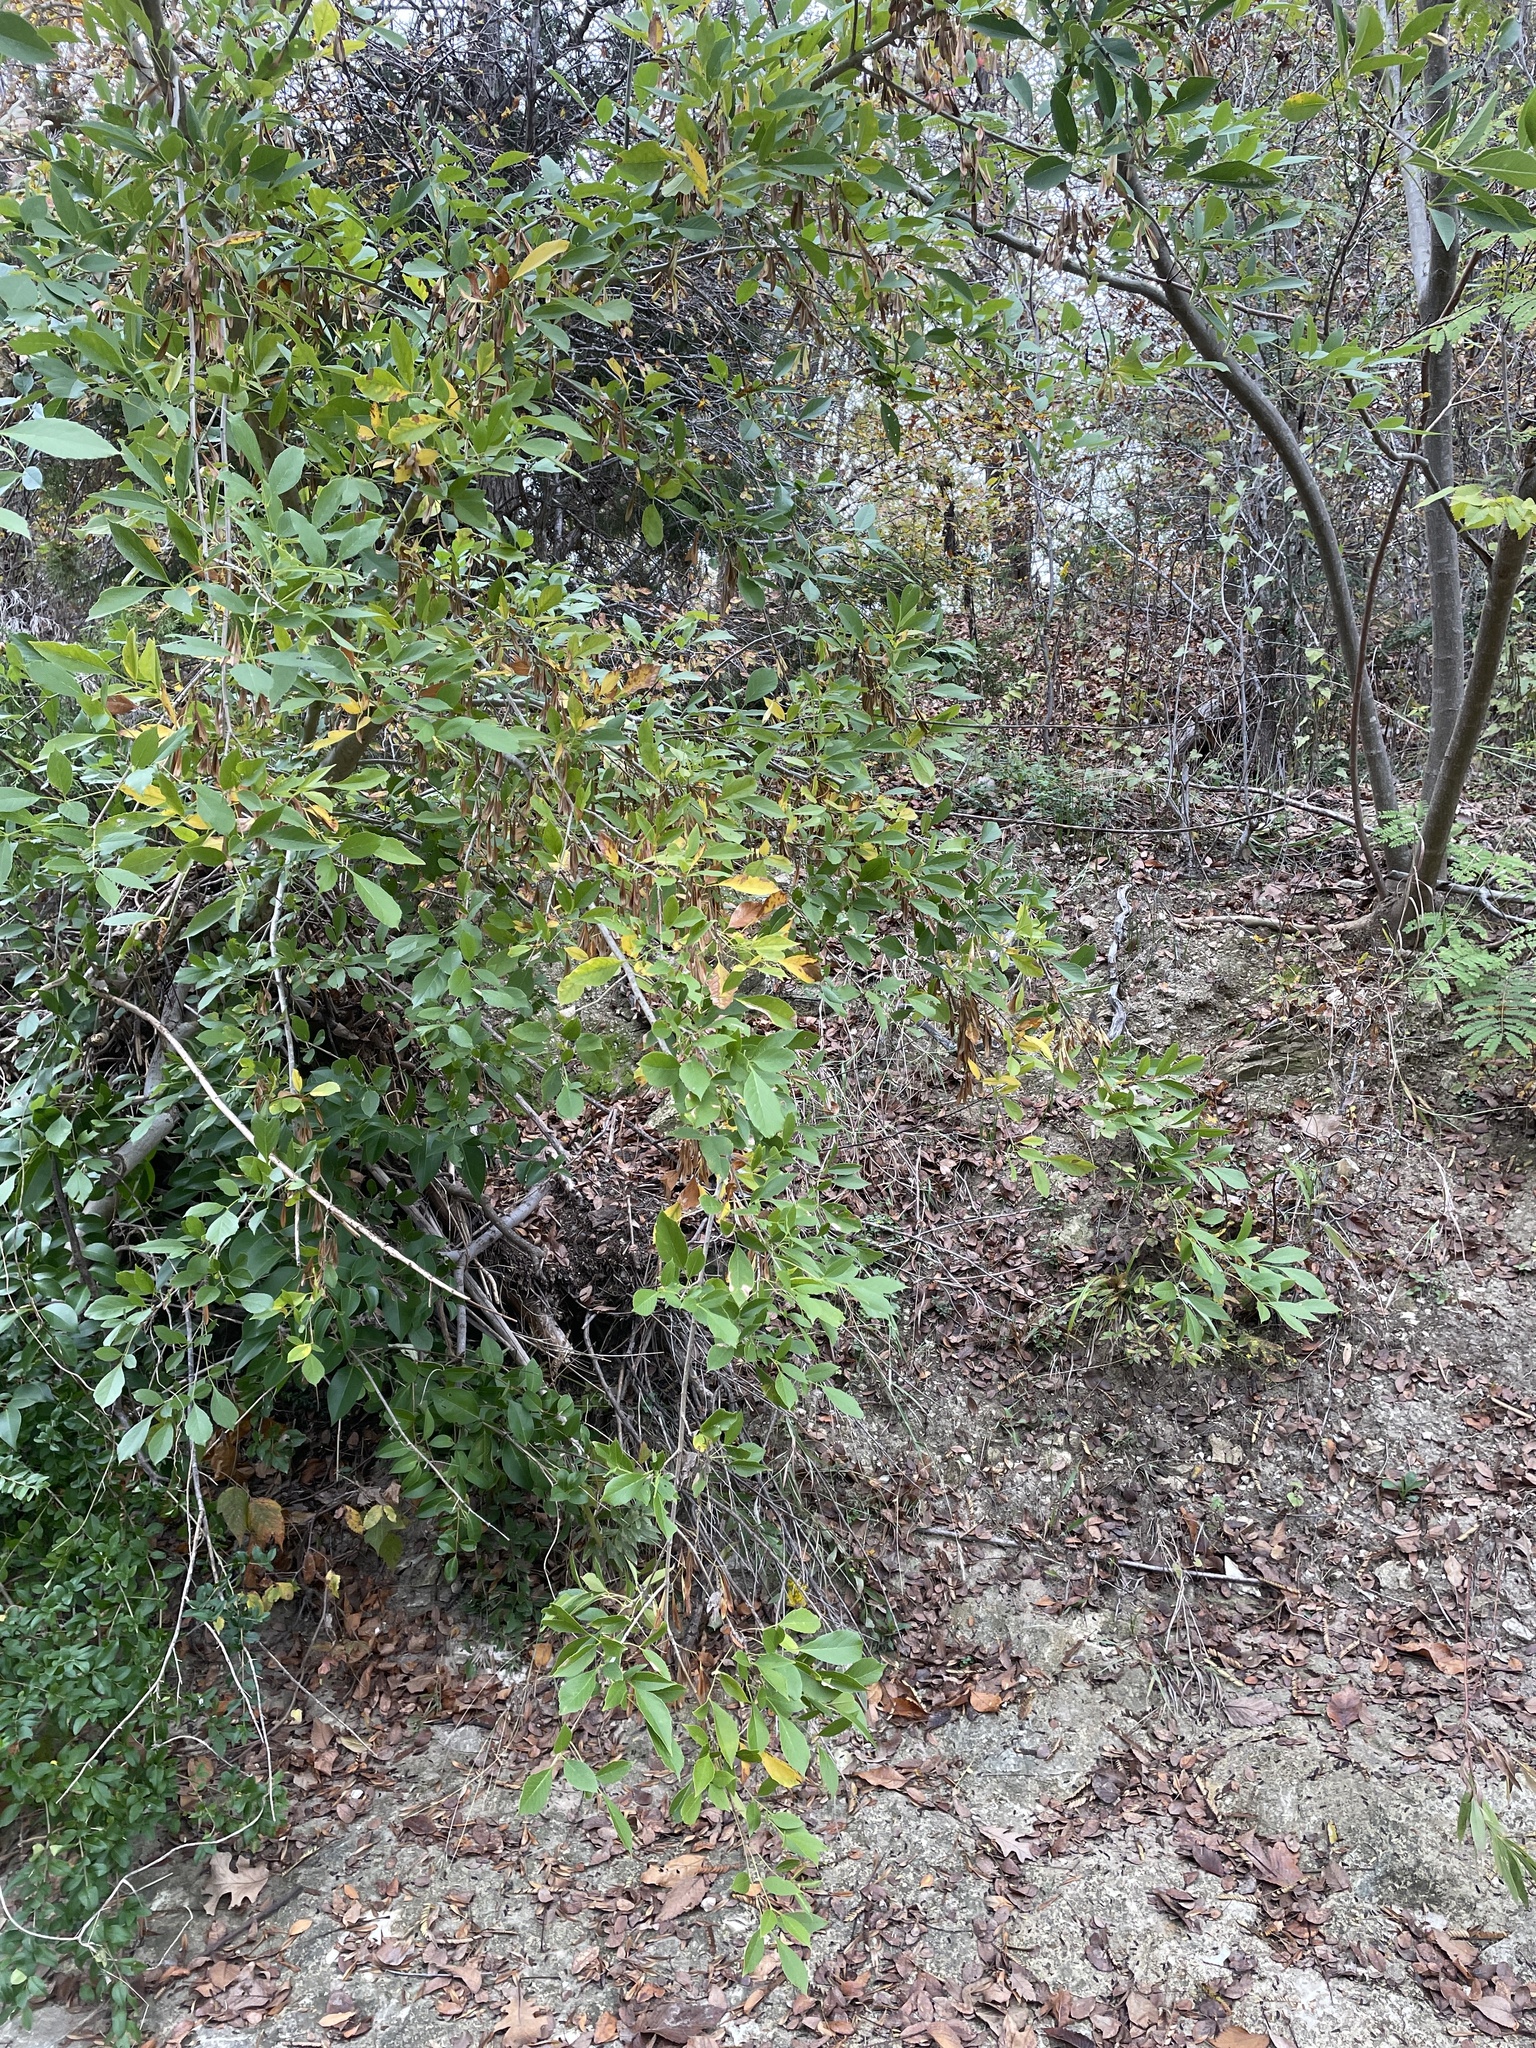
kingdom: Plantae
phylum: Tracheophyta
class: Magnoliopsida
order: Lamiales
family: Oleaceae
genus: Fraxinus
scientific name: Fraxinus berlandieriana
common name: Berlandier ash
